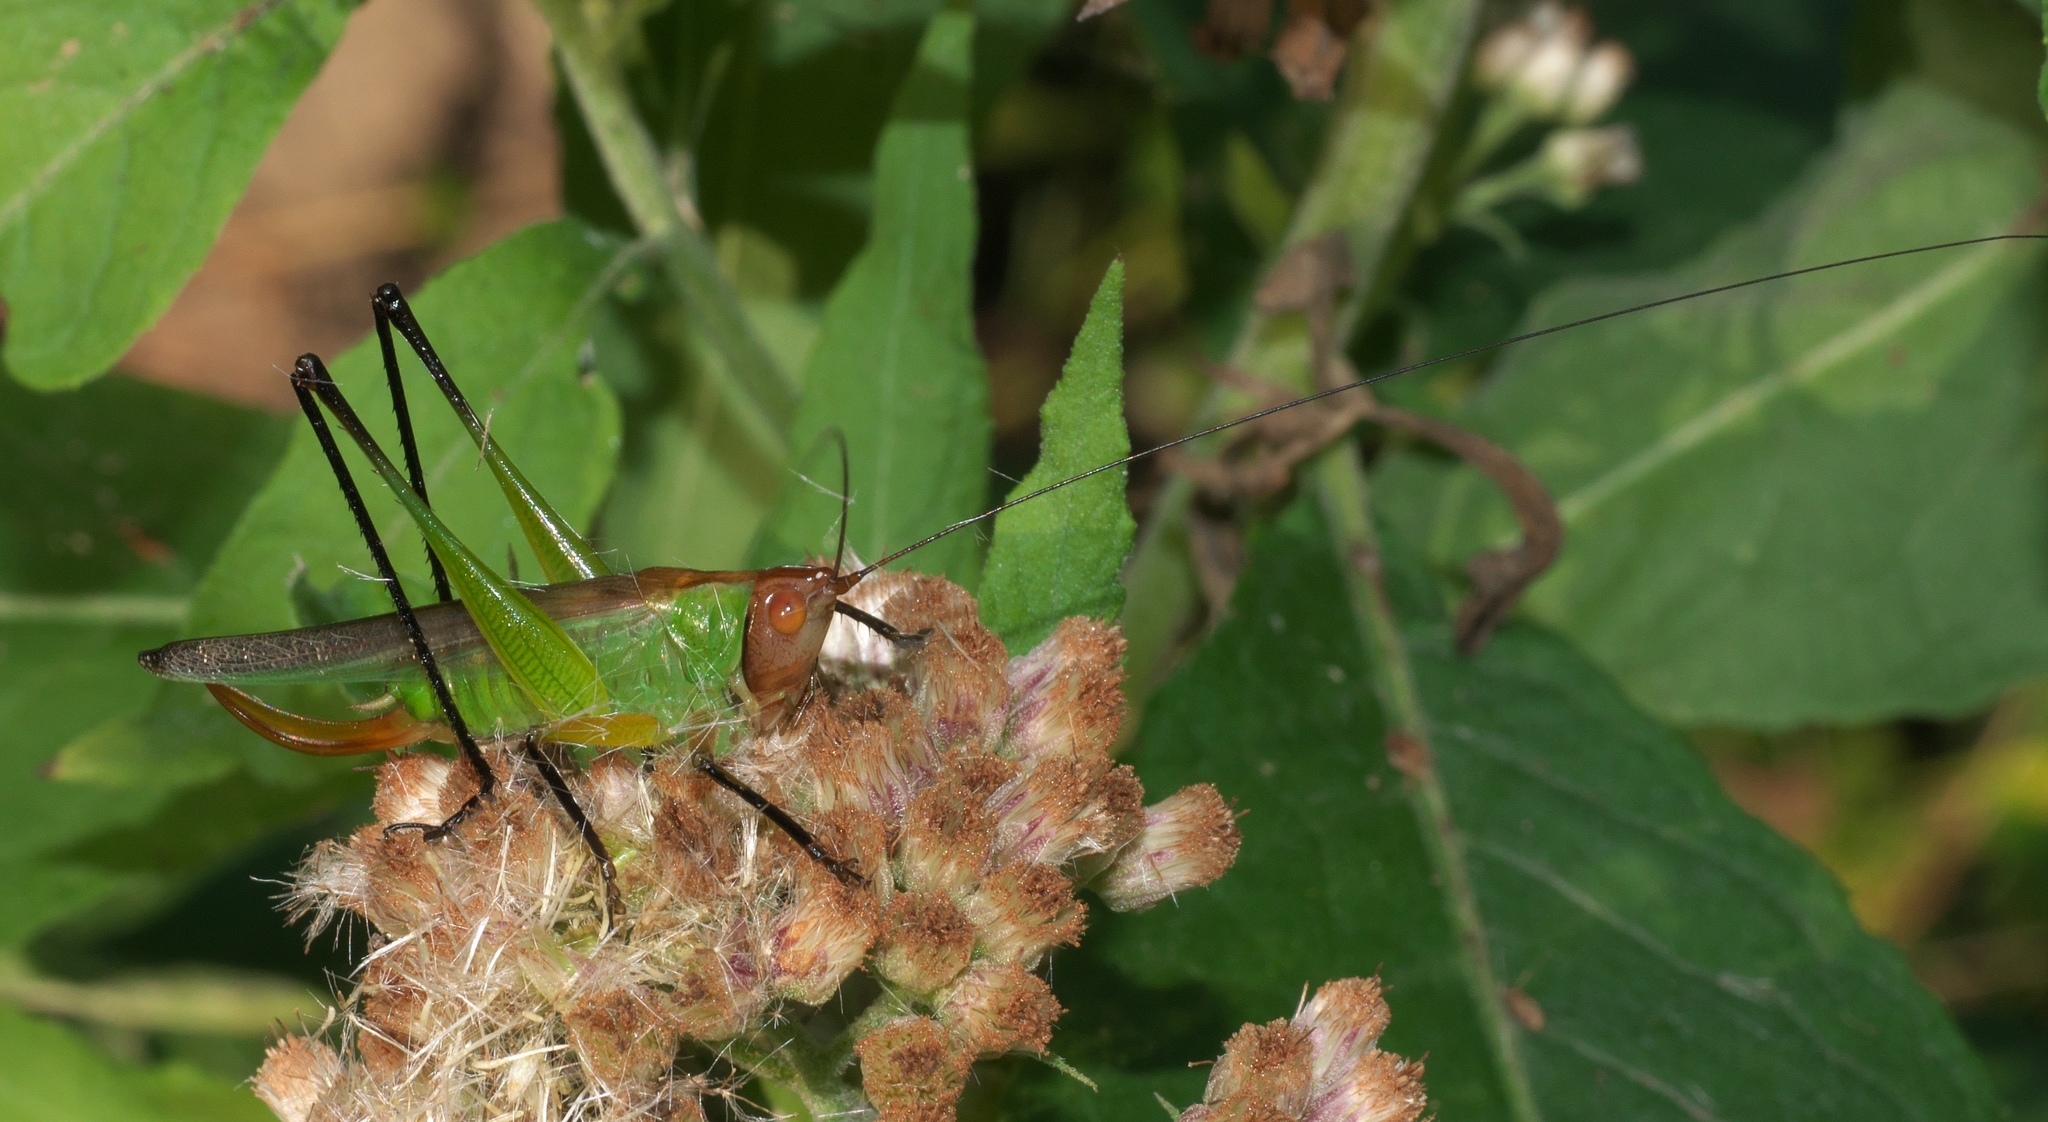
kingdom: Animalia
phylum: Arthropoda
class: Insecta
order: Orthoptera
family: Tettigoniidae
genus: Orchelimum
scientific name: Orchelimum nigripes
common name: Black-legged meadow katydid
